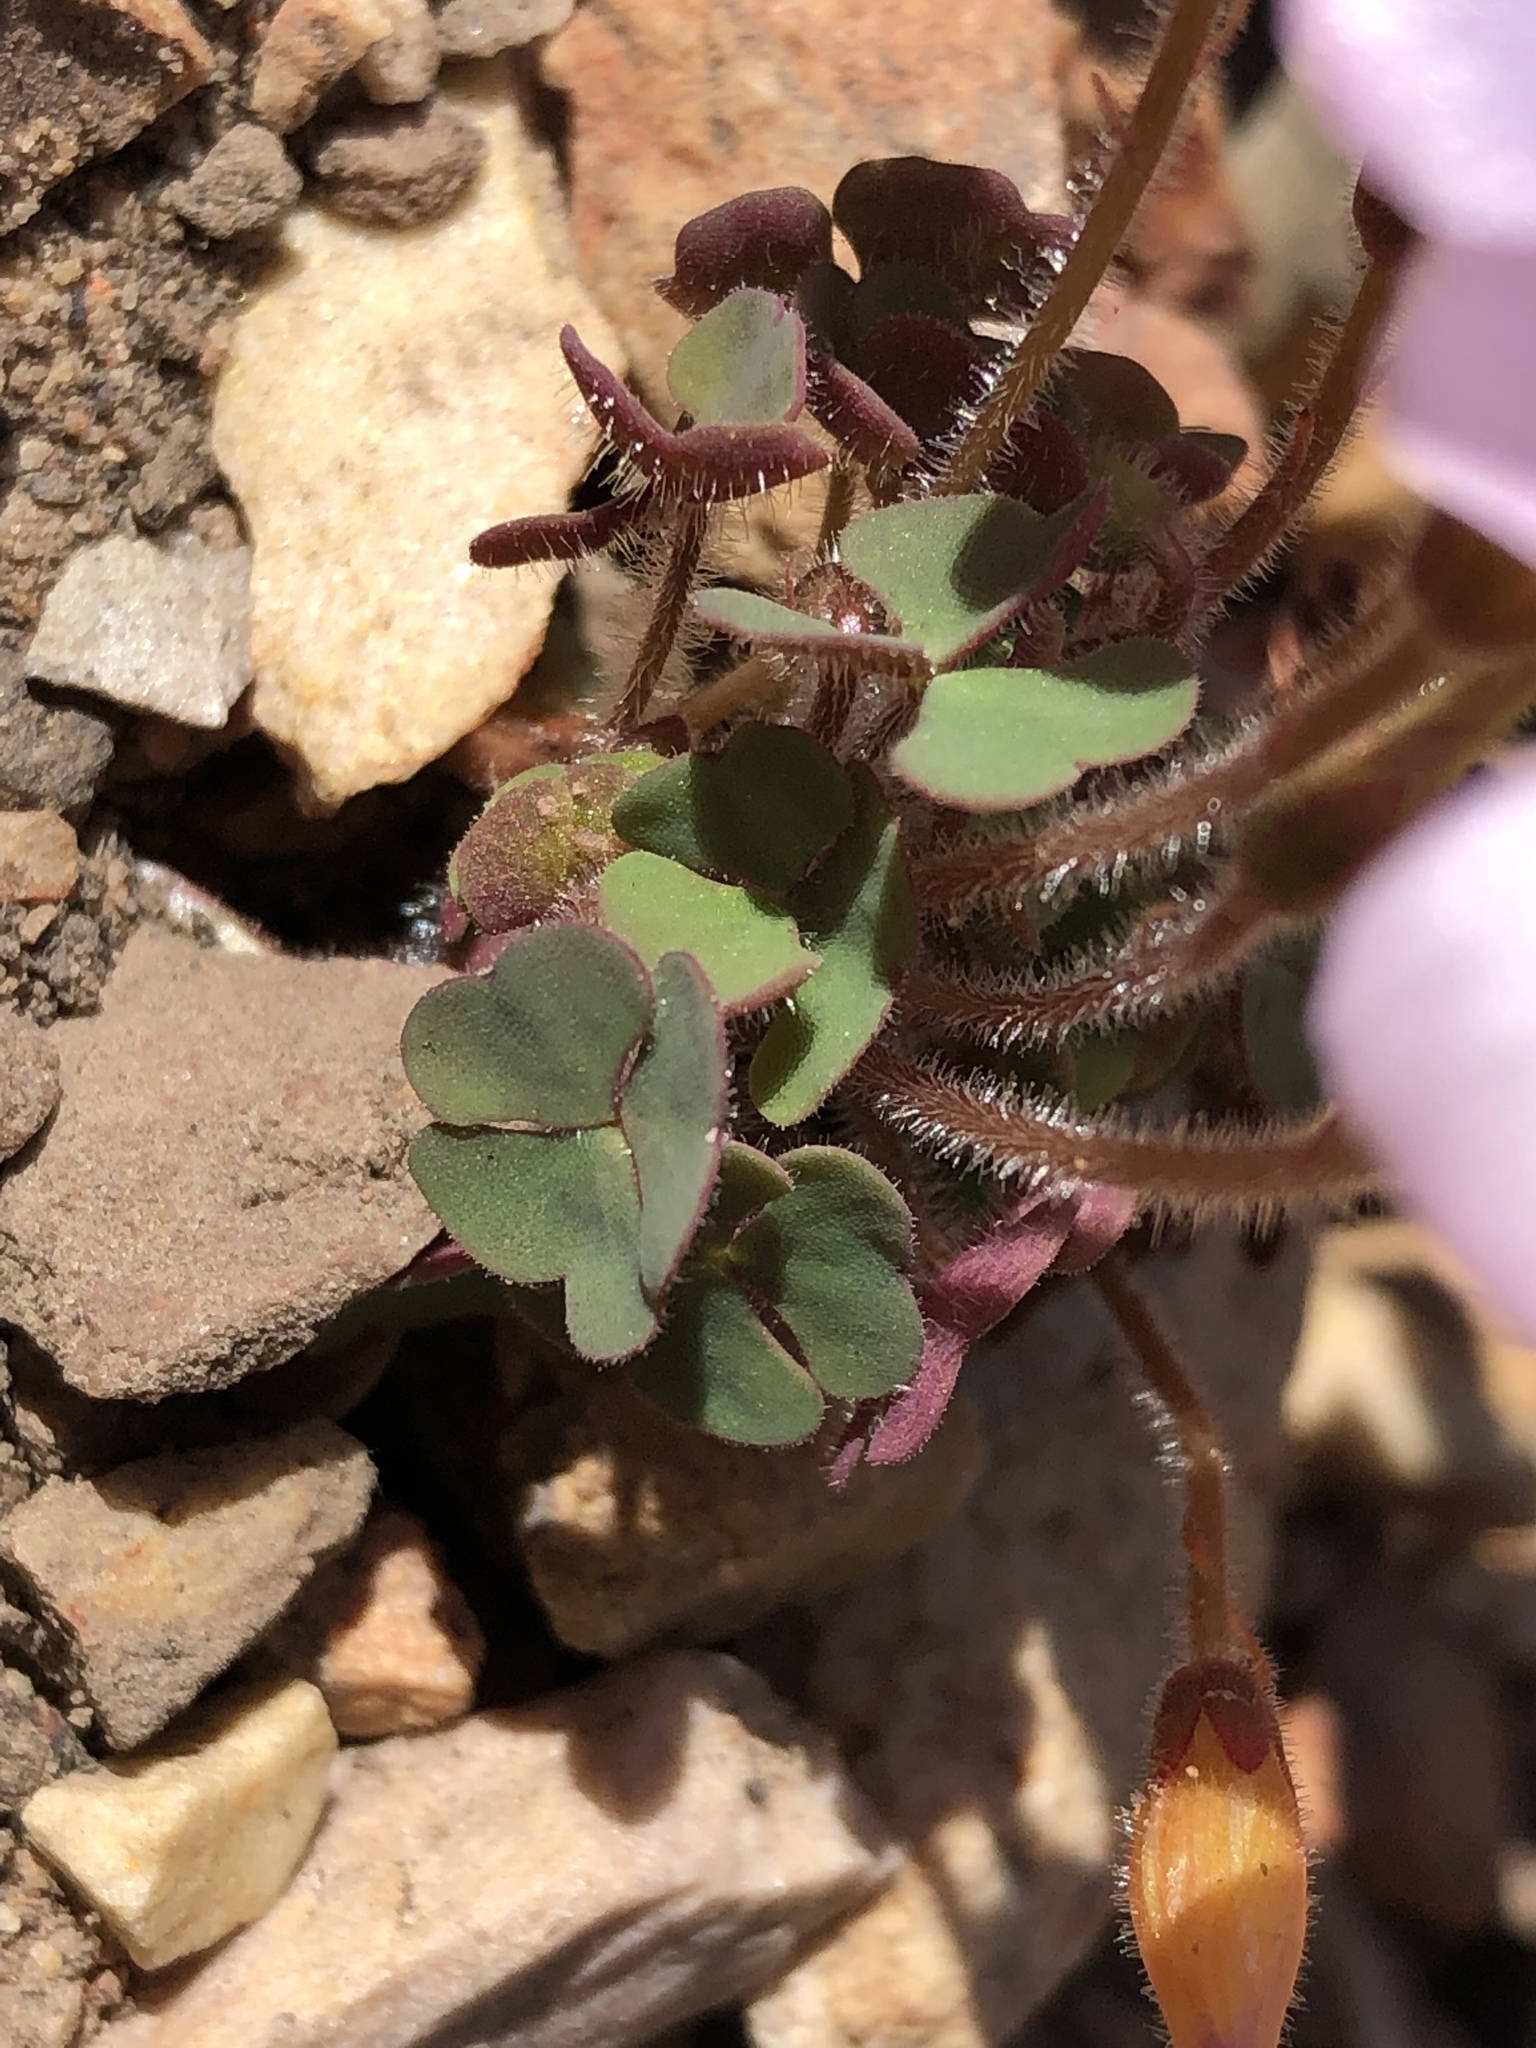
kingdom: Plantae
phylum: Tracheophyta
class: Magnoliopsida
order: Oxalidales
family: Oxalidaceae
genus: Oxalis
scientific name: Oxalis attaquana
